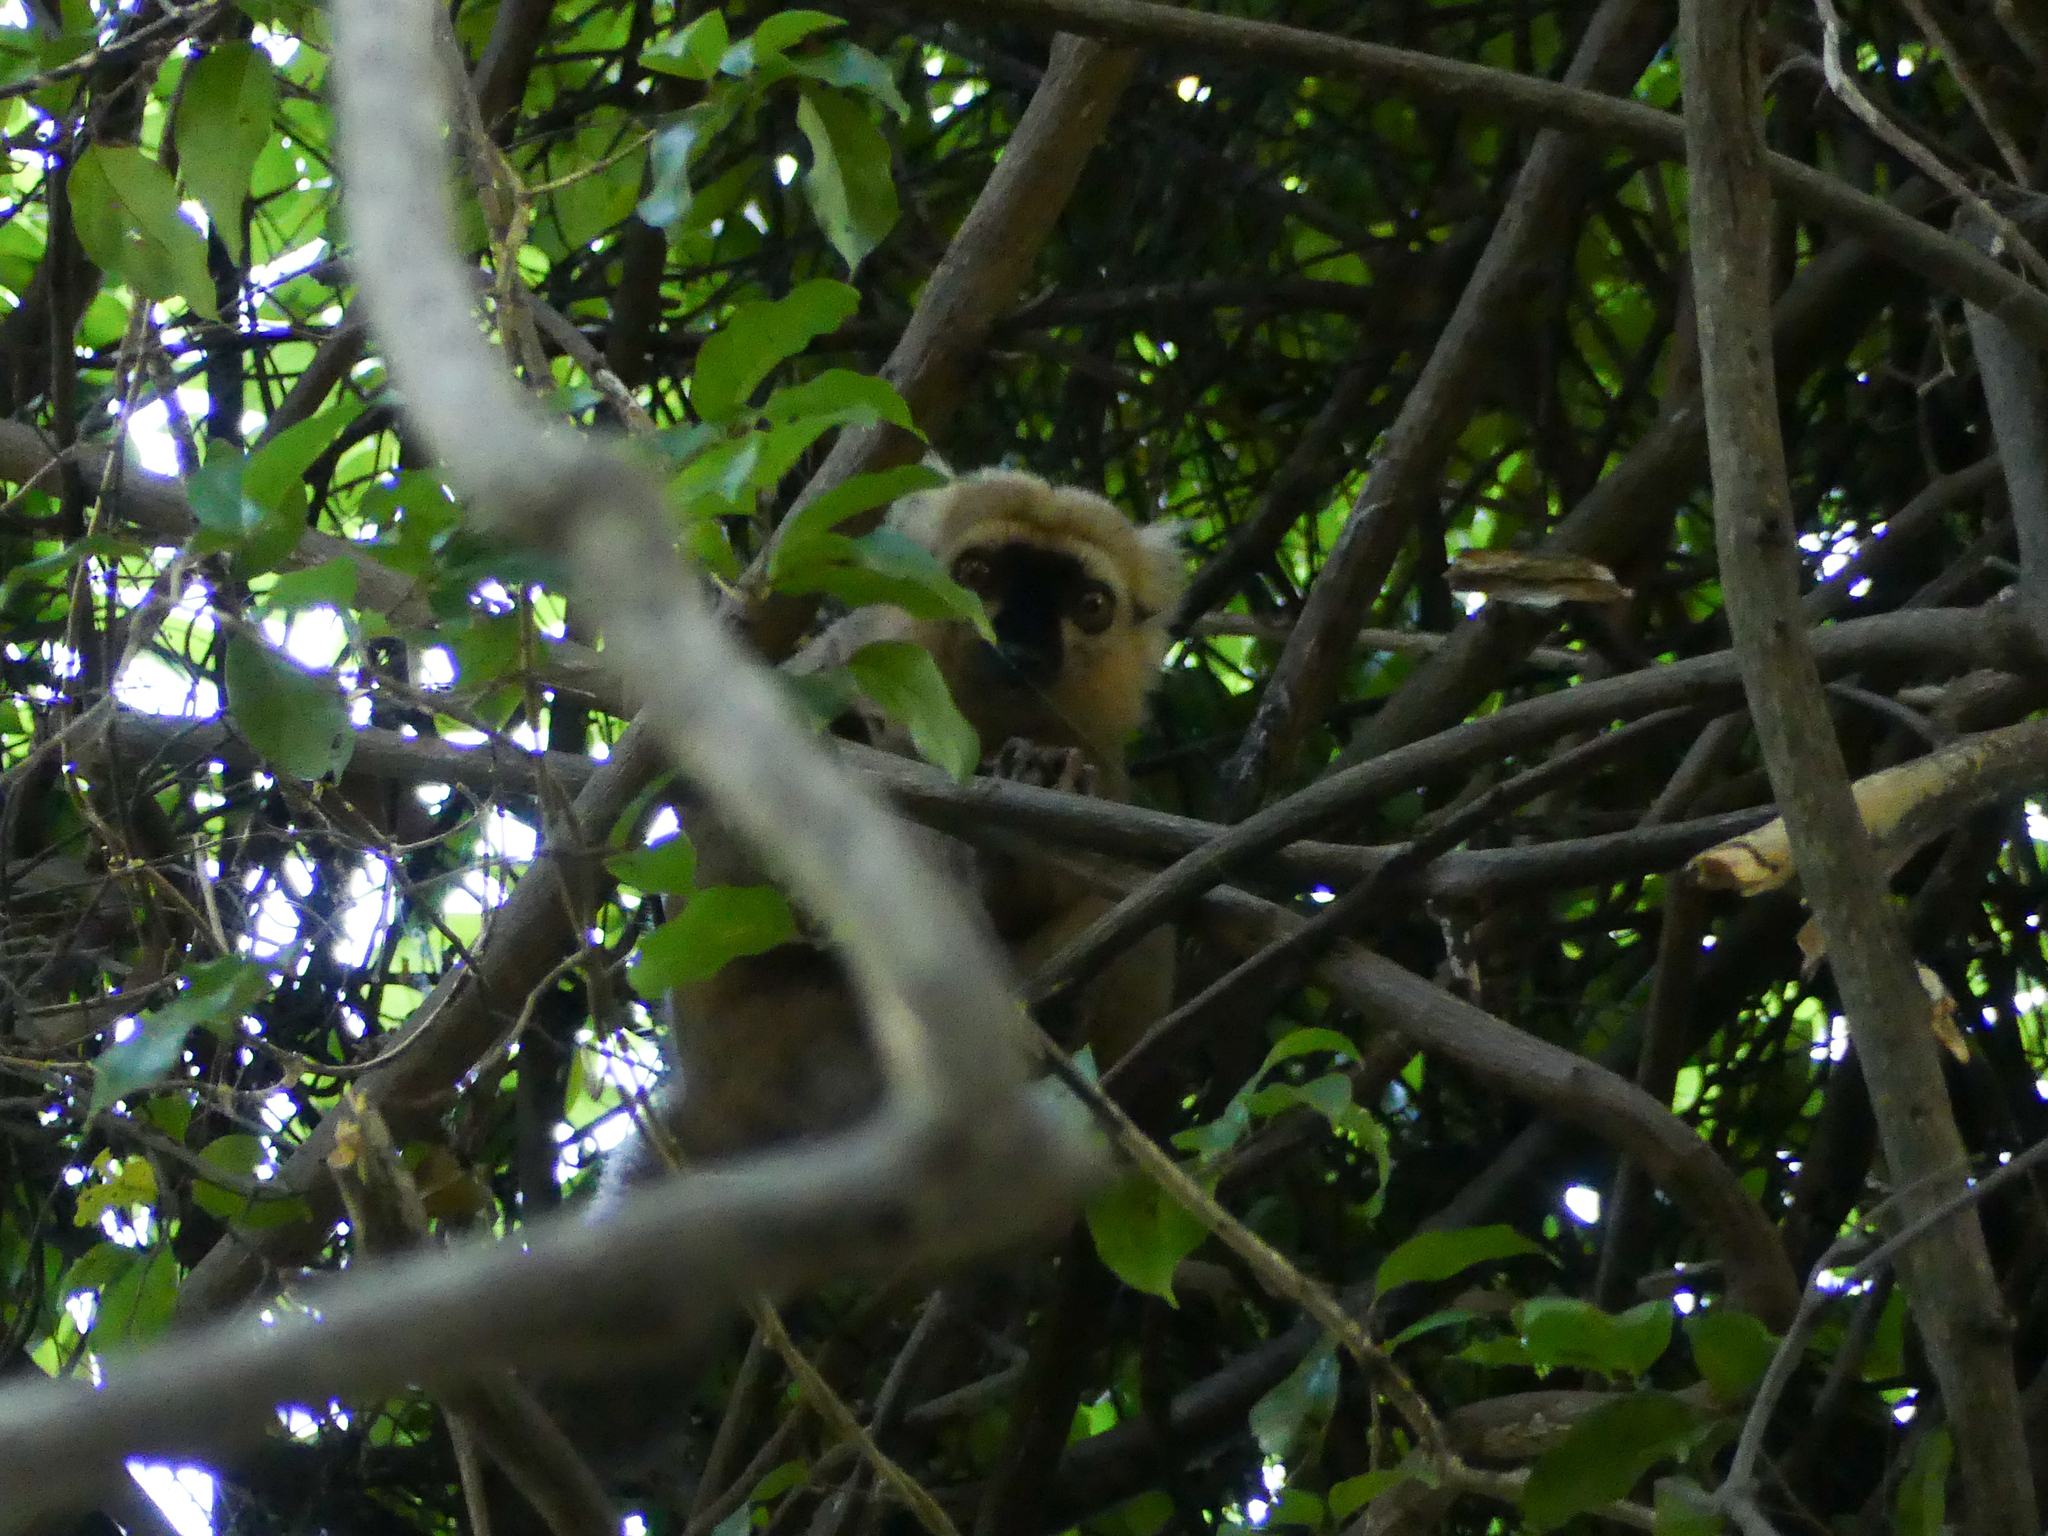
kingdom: Animalia
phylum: Chordata
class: Mammalia
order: Primates
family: Lemuridae
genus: Eulemur
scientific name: Eulemur sanfordi
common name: Sanford's brown lemur
